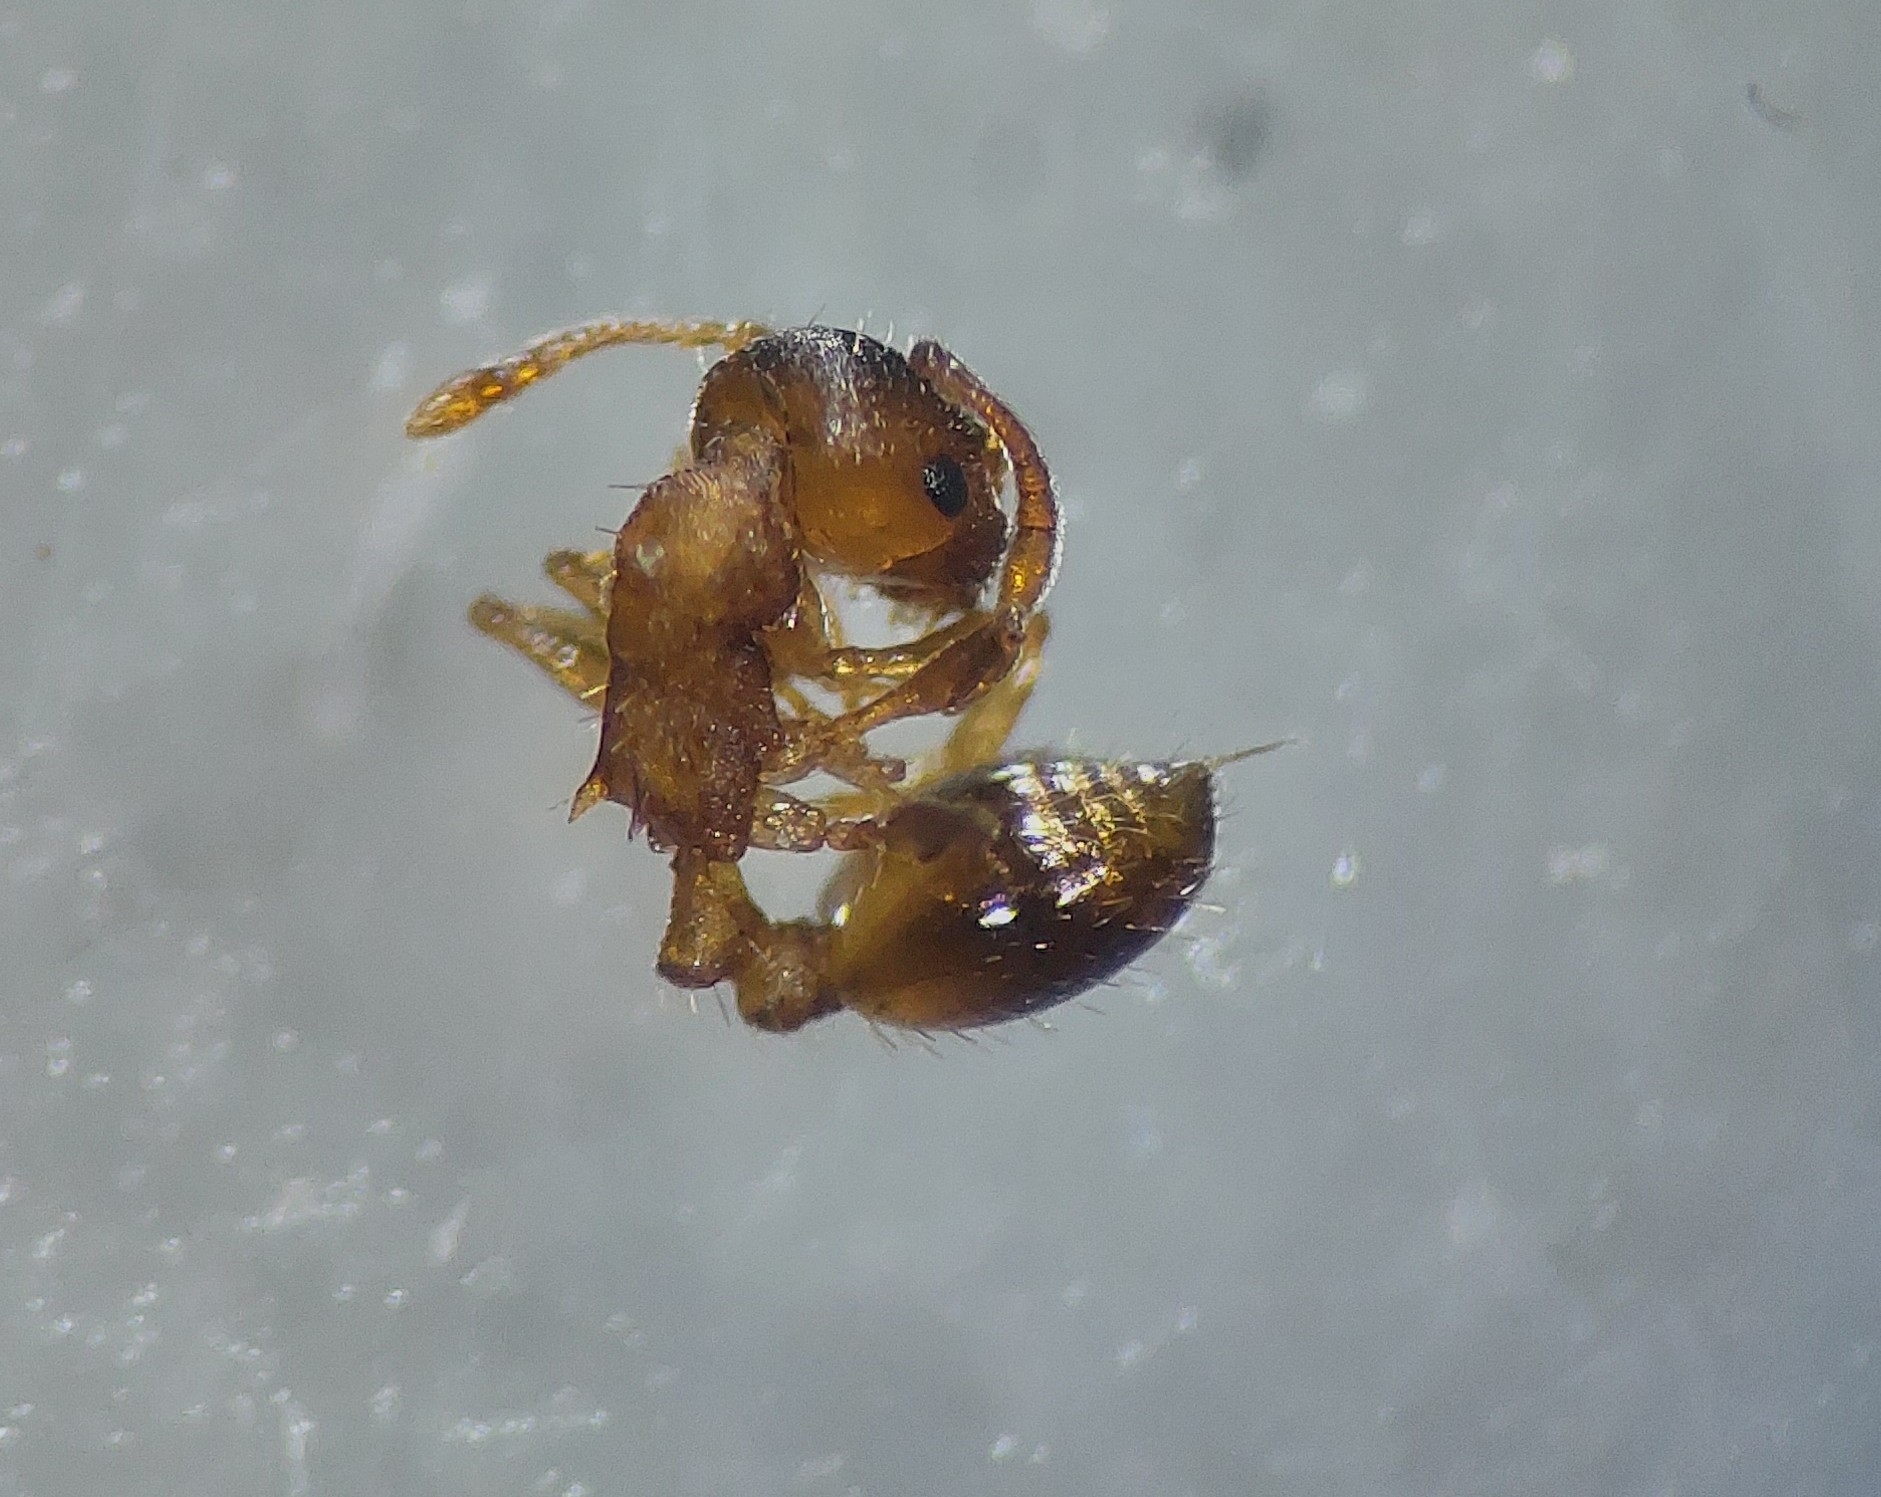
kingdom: Animalia
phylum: Arthropoda
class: Insecta
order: Hymenoptera
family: Formicidae
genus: Leptothorax
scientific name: Leptothorax nylanderi
